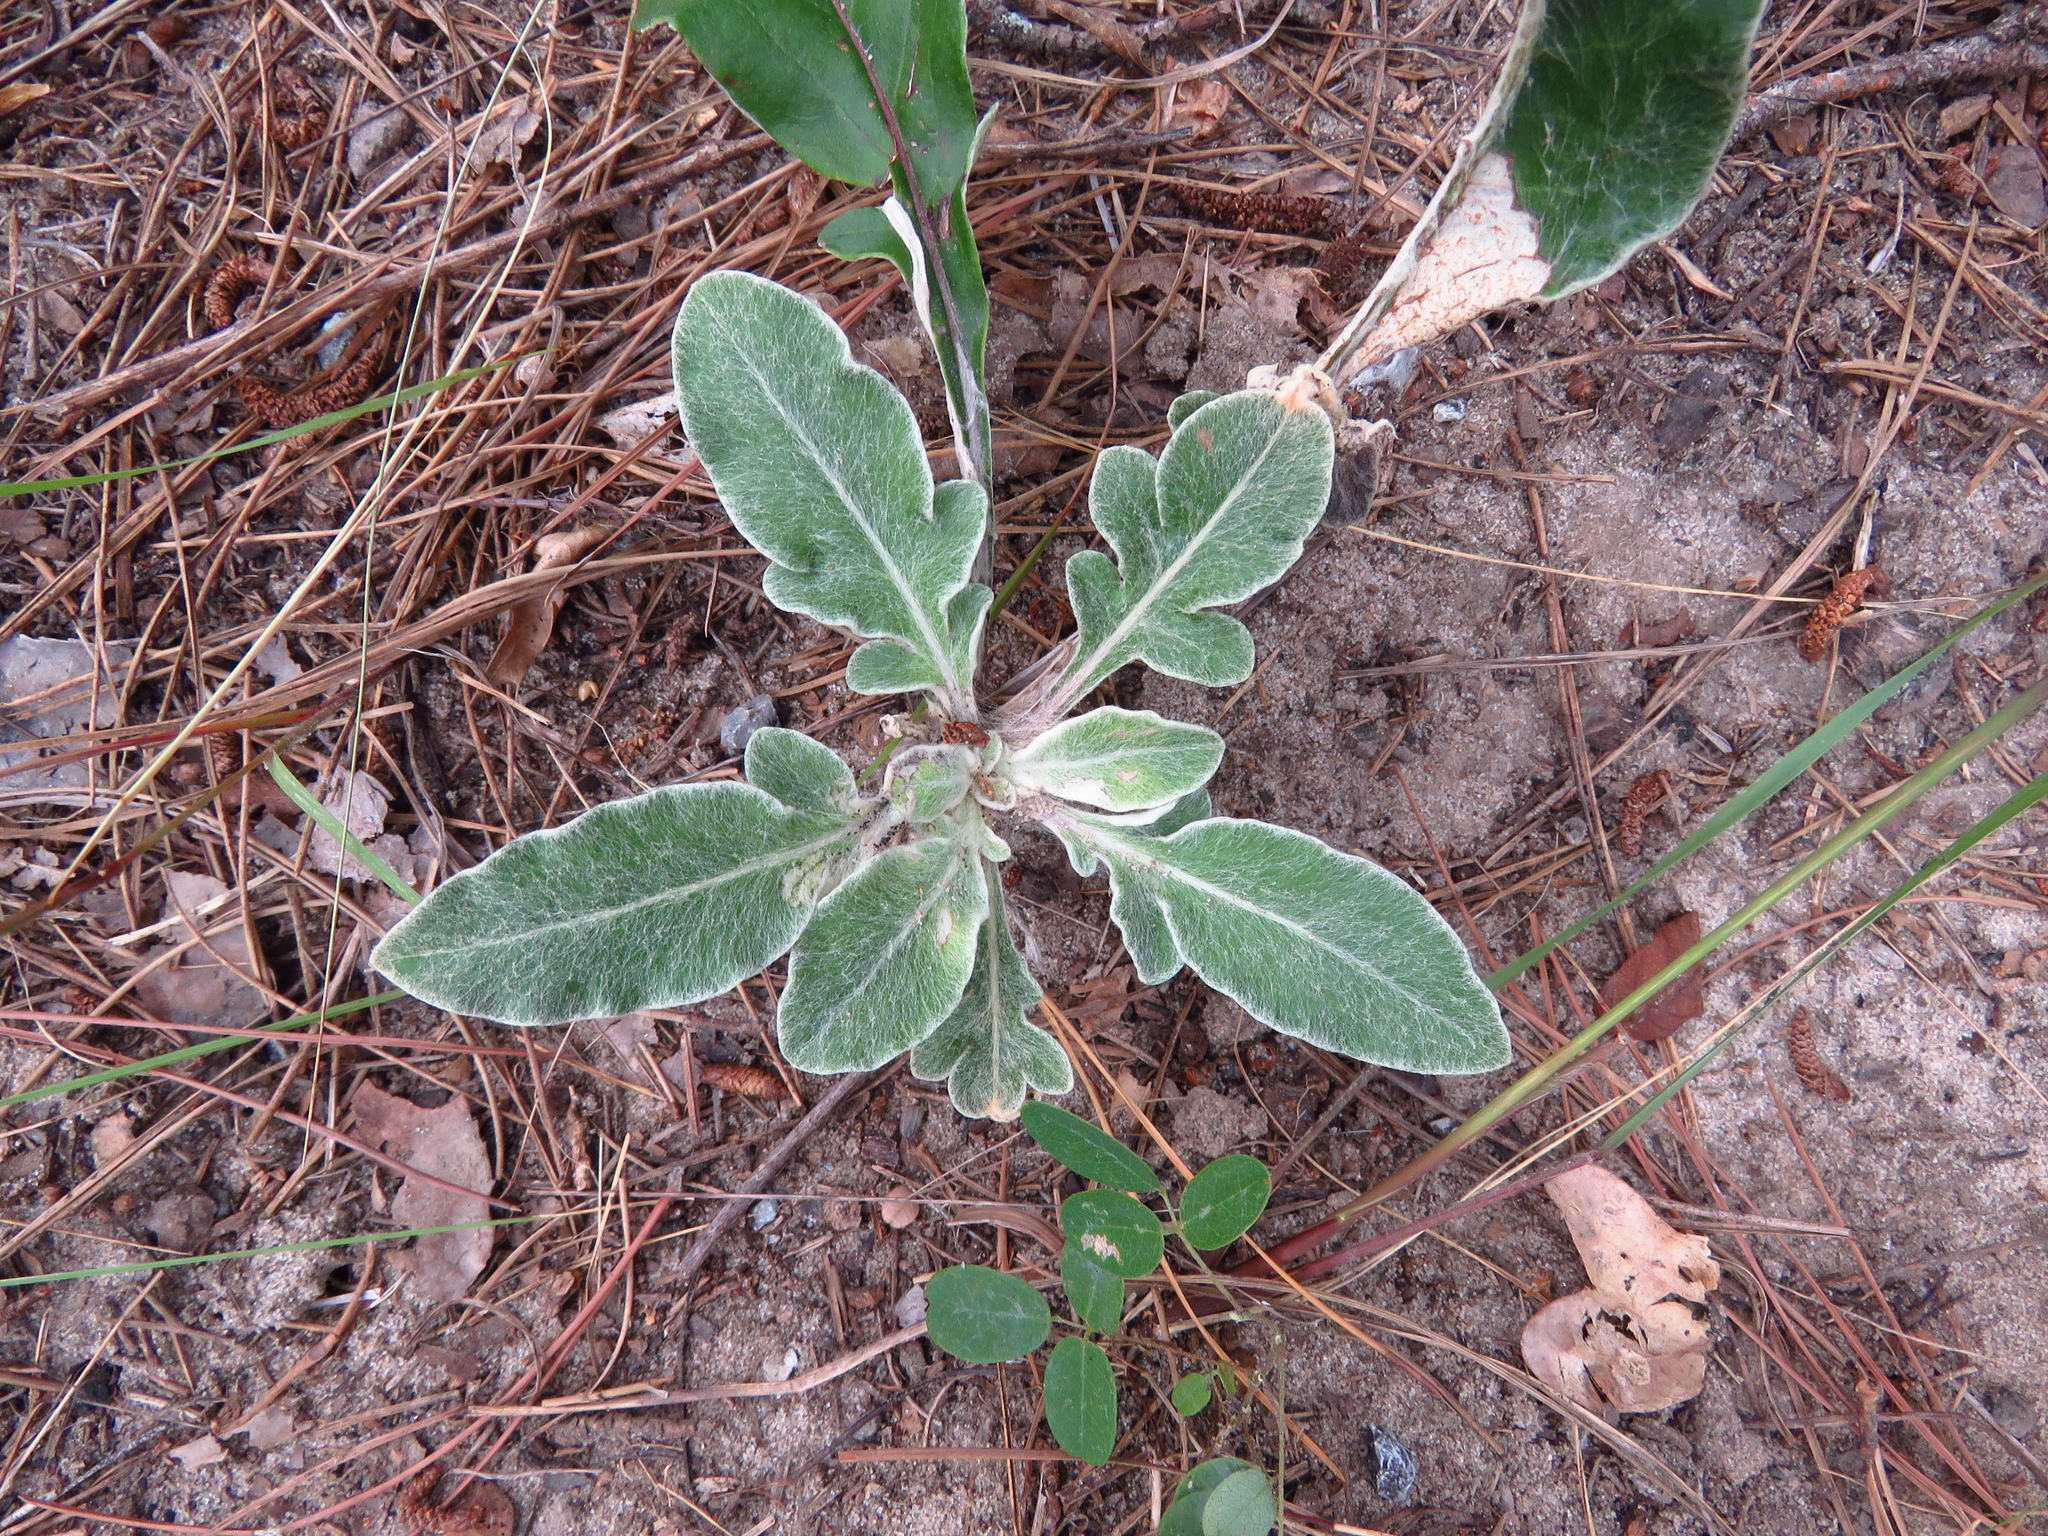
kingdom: Plantae
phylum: Tracheophyta
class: Magnoliopsida
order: Asterales
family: Asteraceae
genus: Hymenopappus
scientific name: Hymenopappus artemisiifolius
